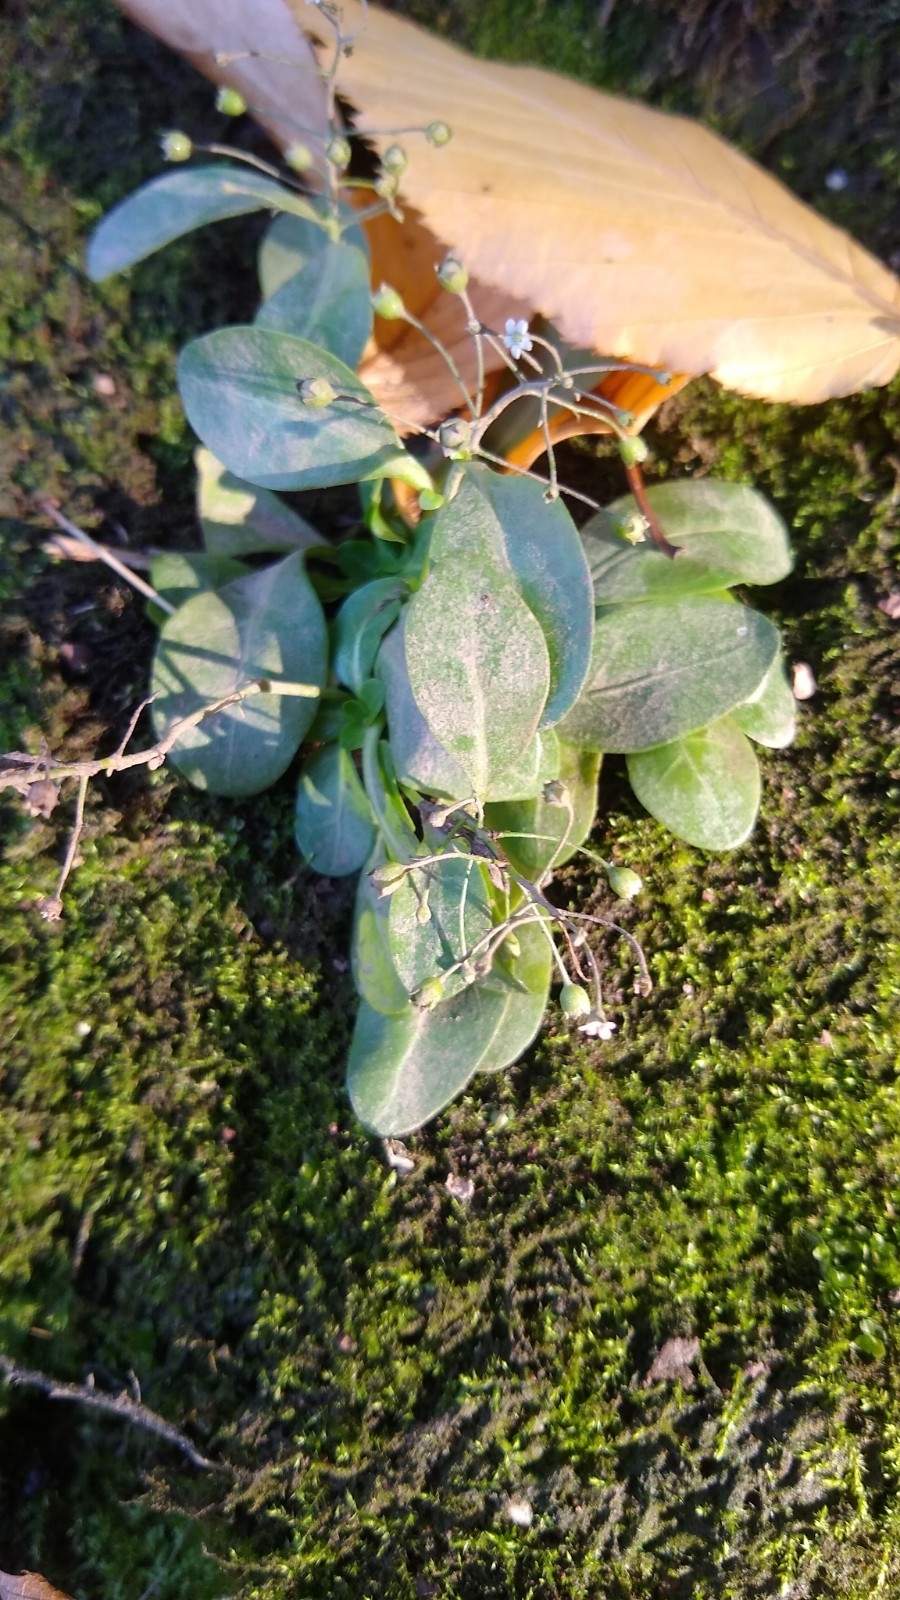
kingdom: Plantae
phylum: Tracheophyta
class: Magnoliopsida
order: Ericales
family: Primulaceae
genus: Samolus
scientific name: Samolus parviflorus
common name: False water pimpernel
